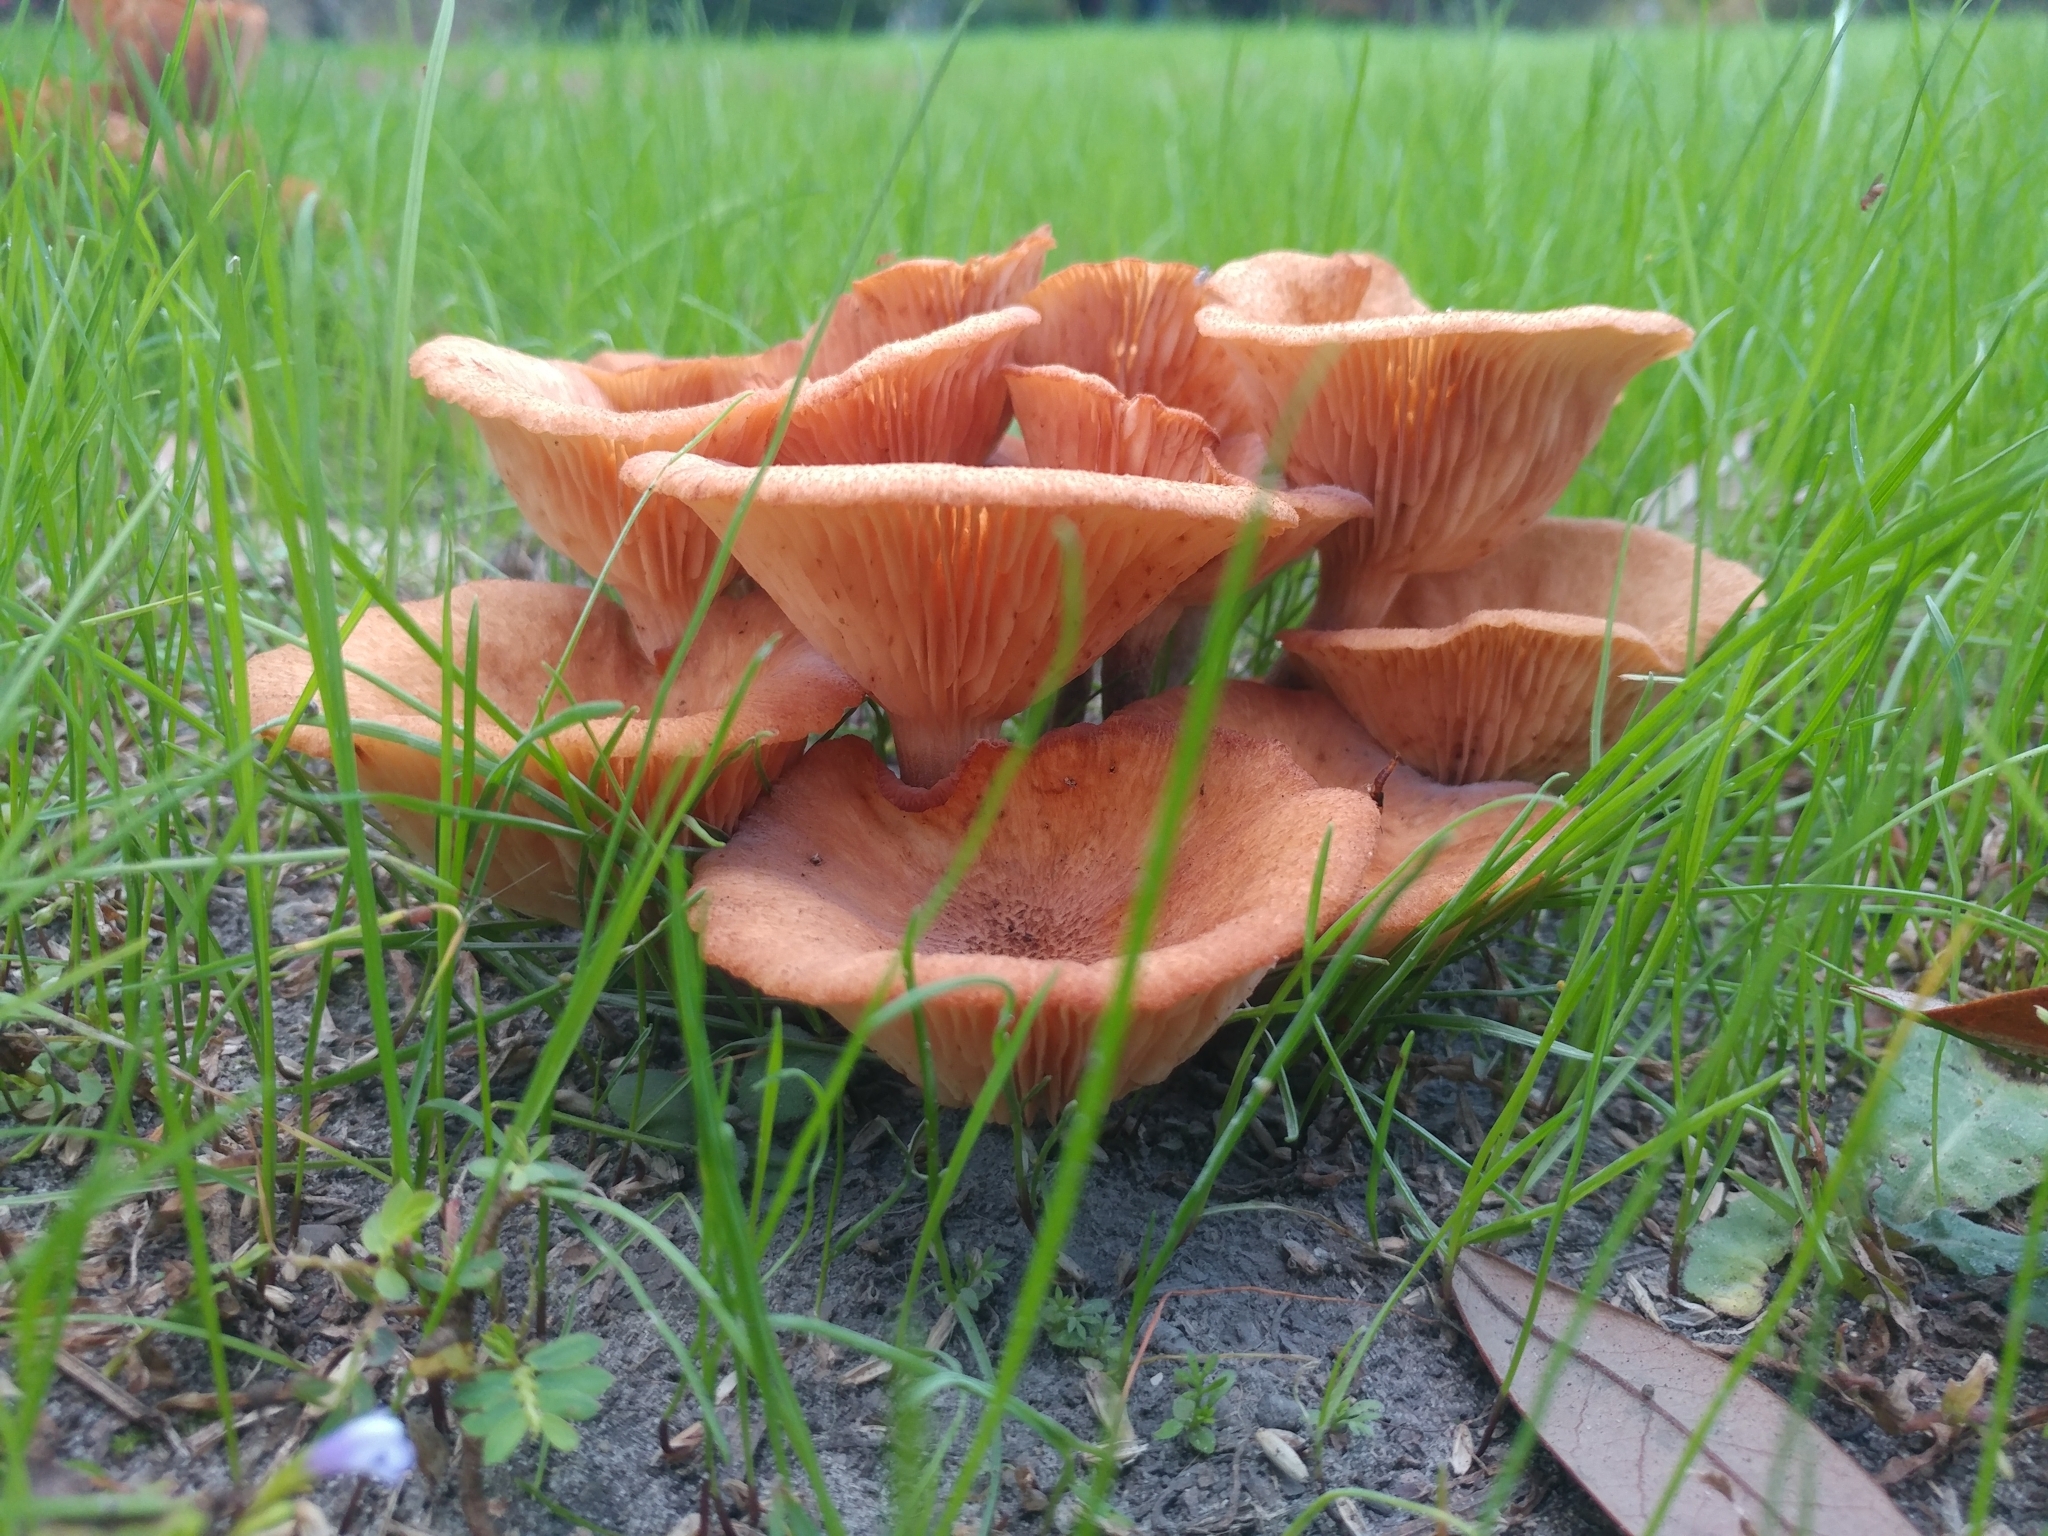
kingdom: Fungi
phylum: Basidiomycota
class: Agaricomycetes
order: Agaricales
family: Physalacriaceae
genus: Desarmillaria
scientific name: Desarmillaria caespitosa
